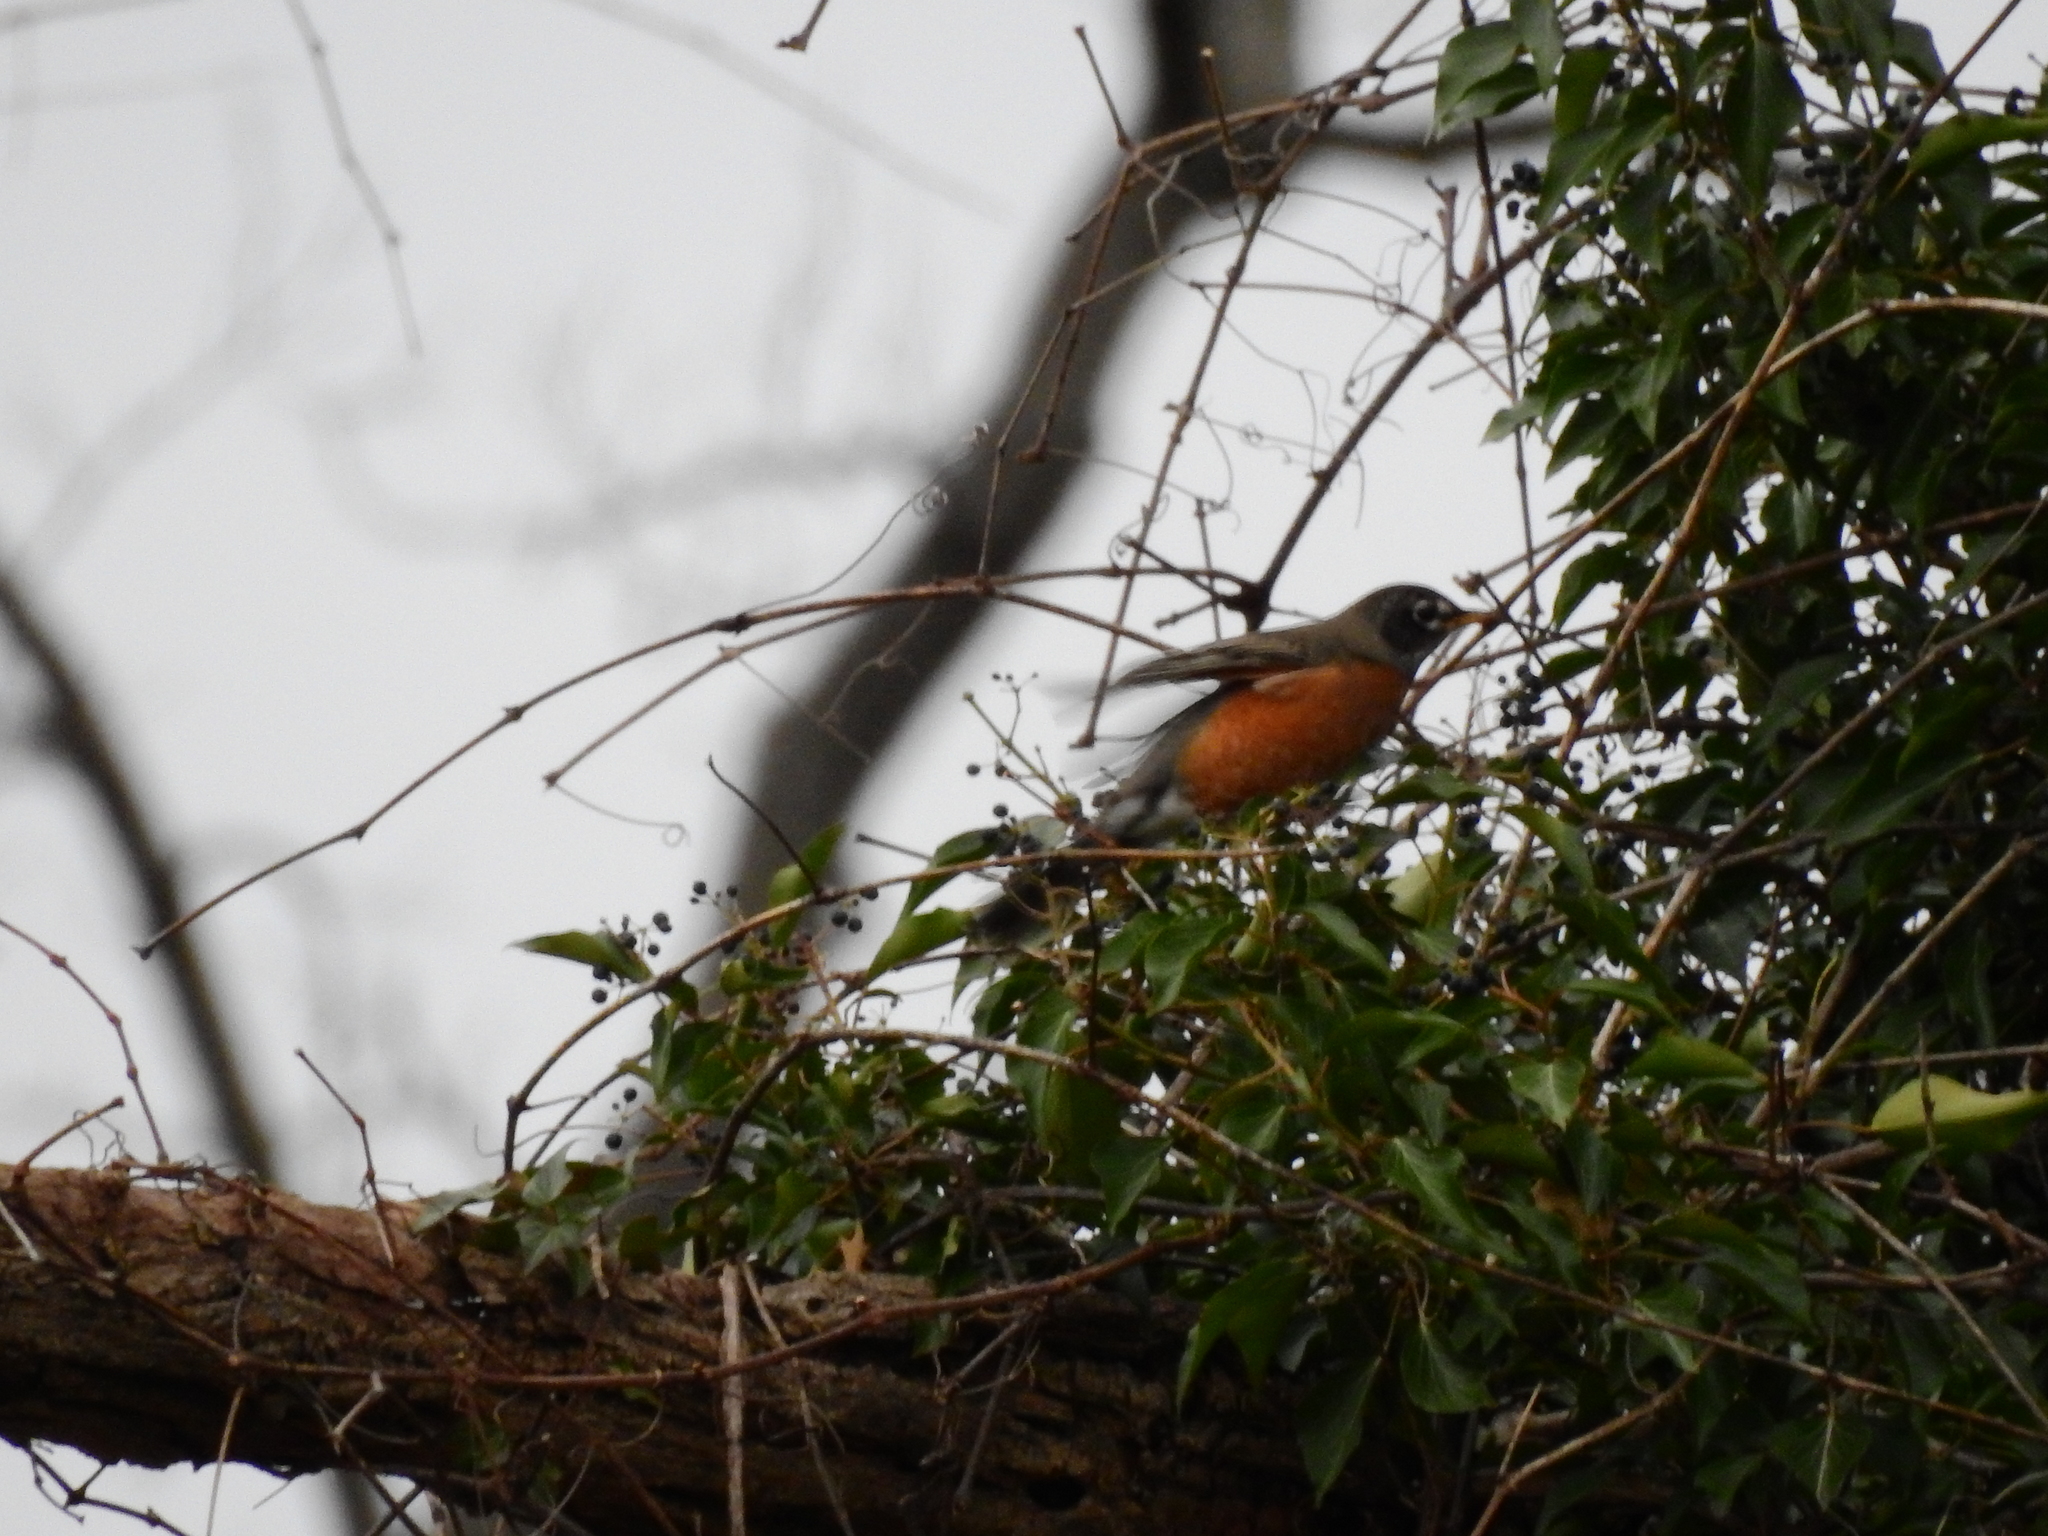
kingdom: Animalia
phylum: Chordata
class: Aves
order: Passeriformes
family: Turdidae
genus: Turdus
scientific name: Turdus migratorius
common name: American robin
